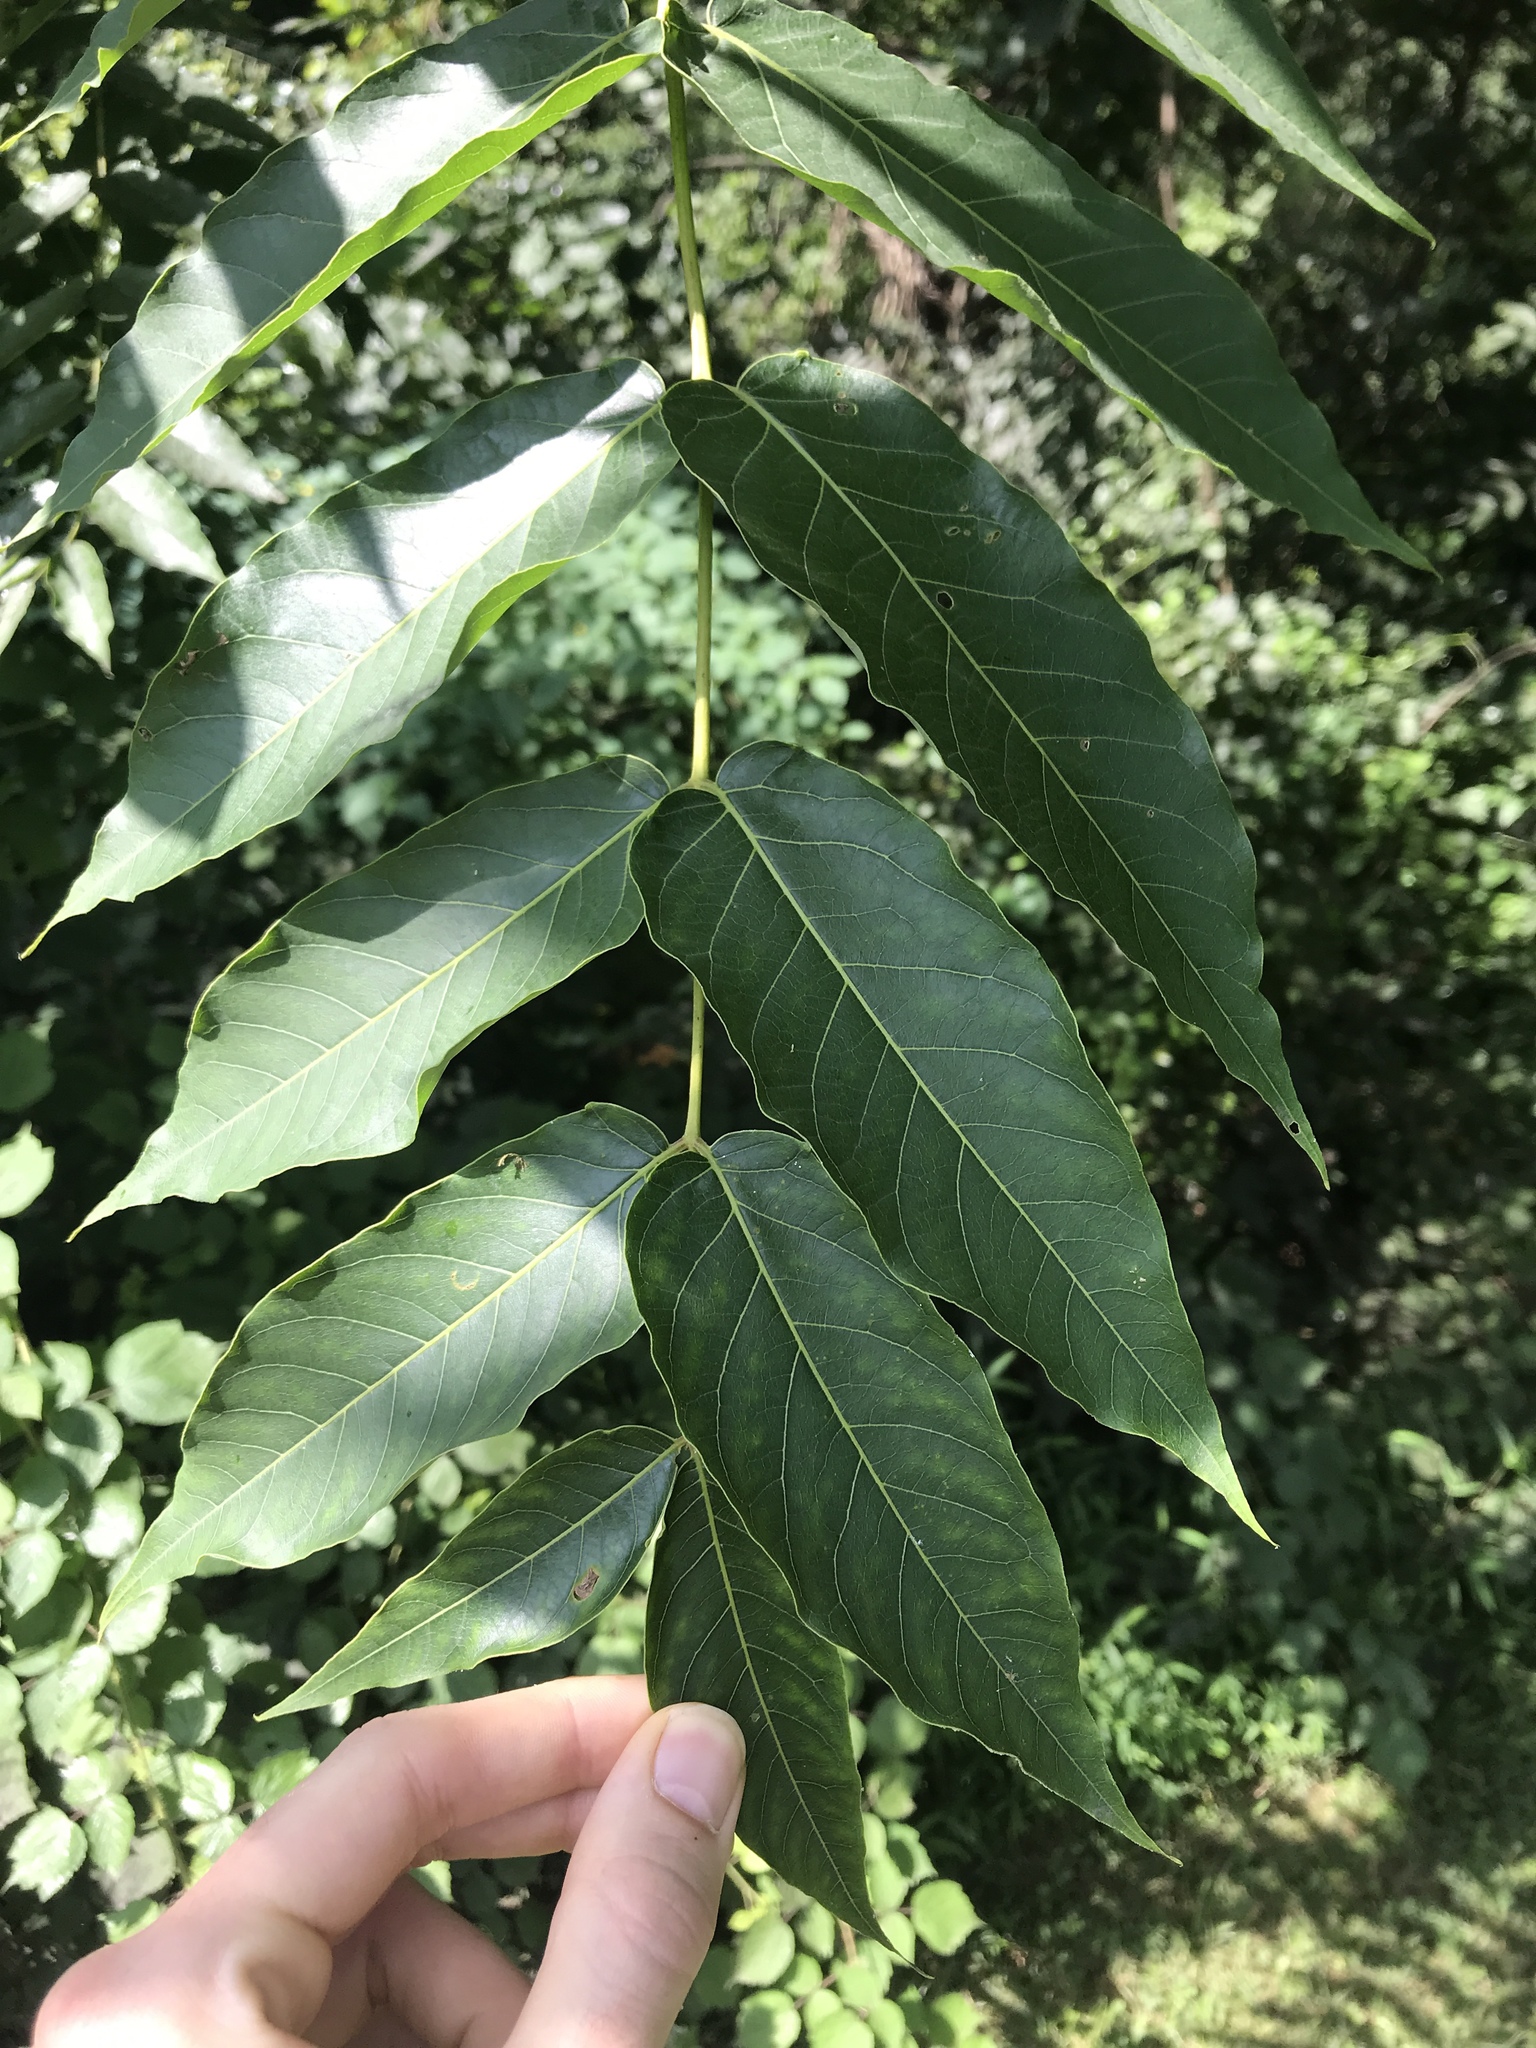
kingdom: Plantae
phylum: Tracheophyta
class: Magnoliopsida
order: Sapindales
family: Simaroubaceae
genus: Ailanthus
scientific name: Ailanthus altissima
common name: Tree-of-heaven
